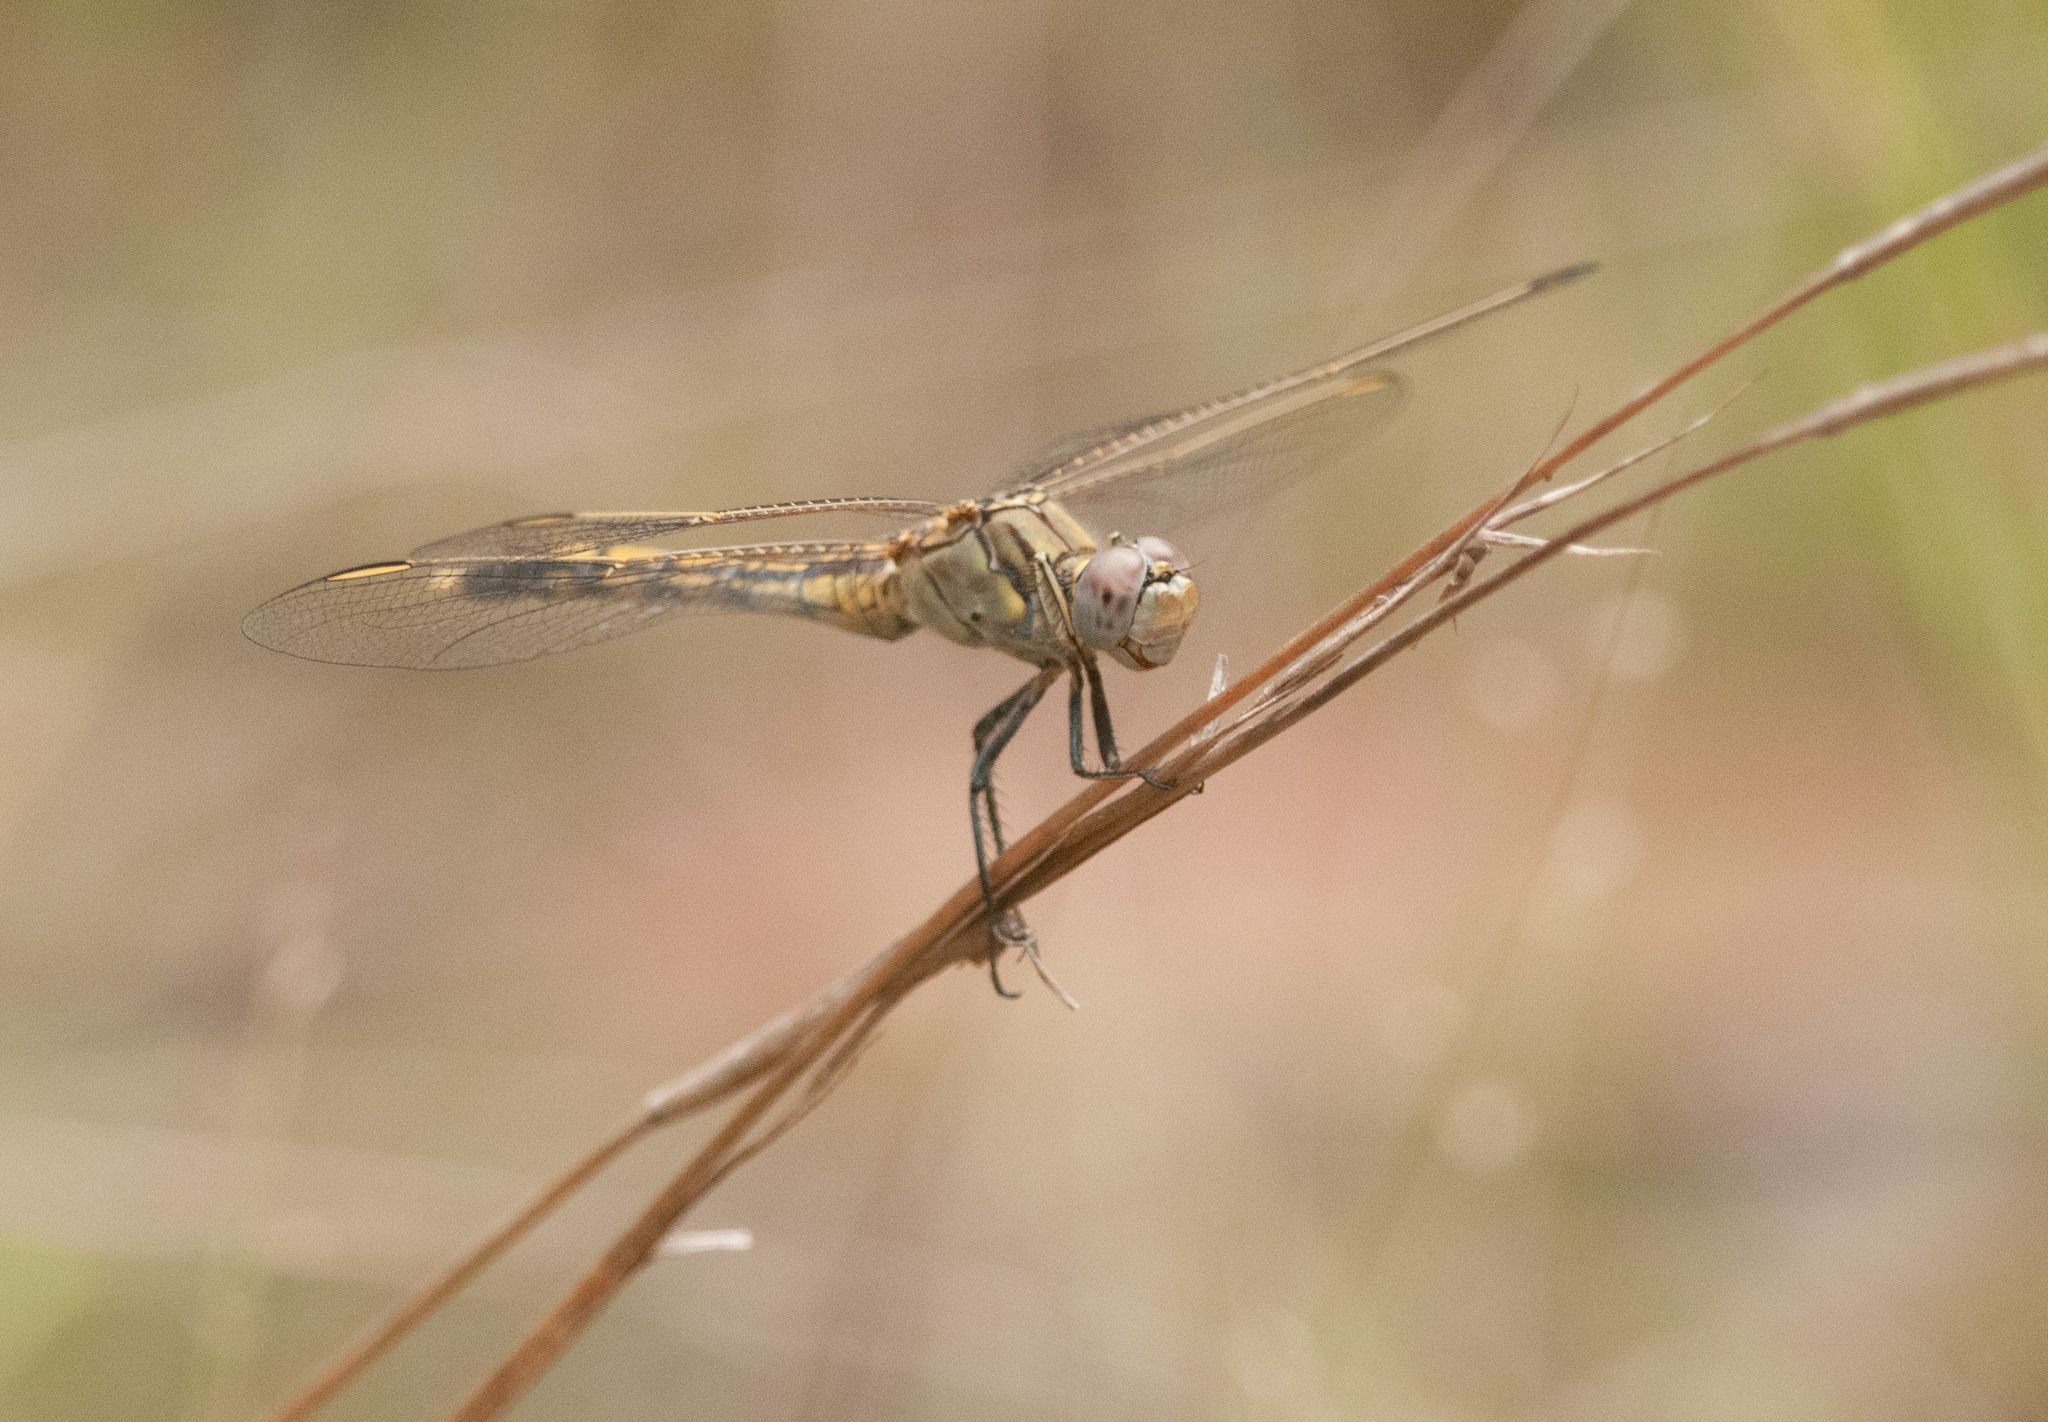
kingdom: Animalia
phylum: Arthropoda
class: Insecta
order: Odonata
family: Libellulidae
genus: Orthetrum
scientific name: Orthetrum caledonicum
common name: Blue skimmer
